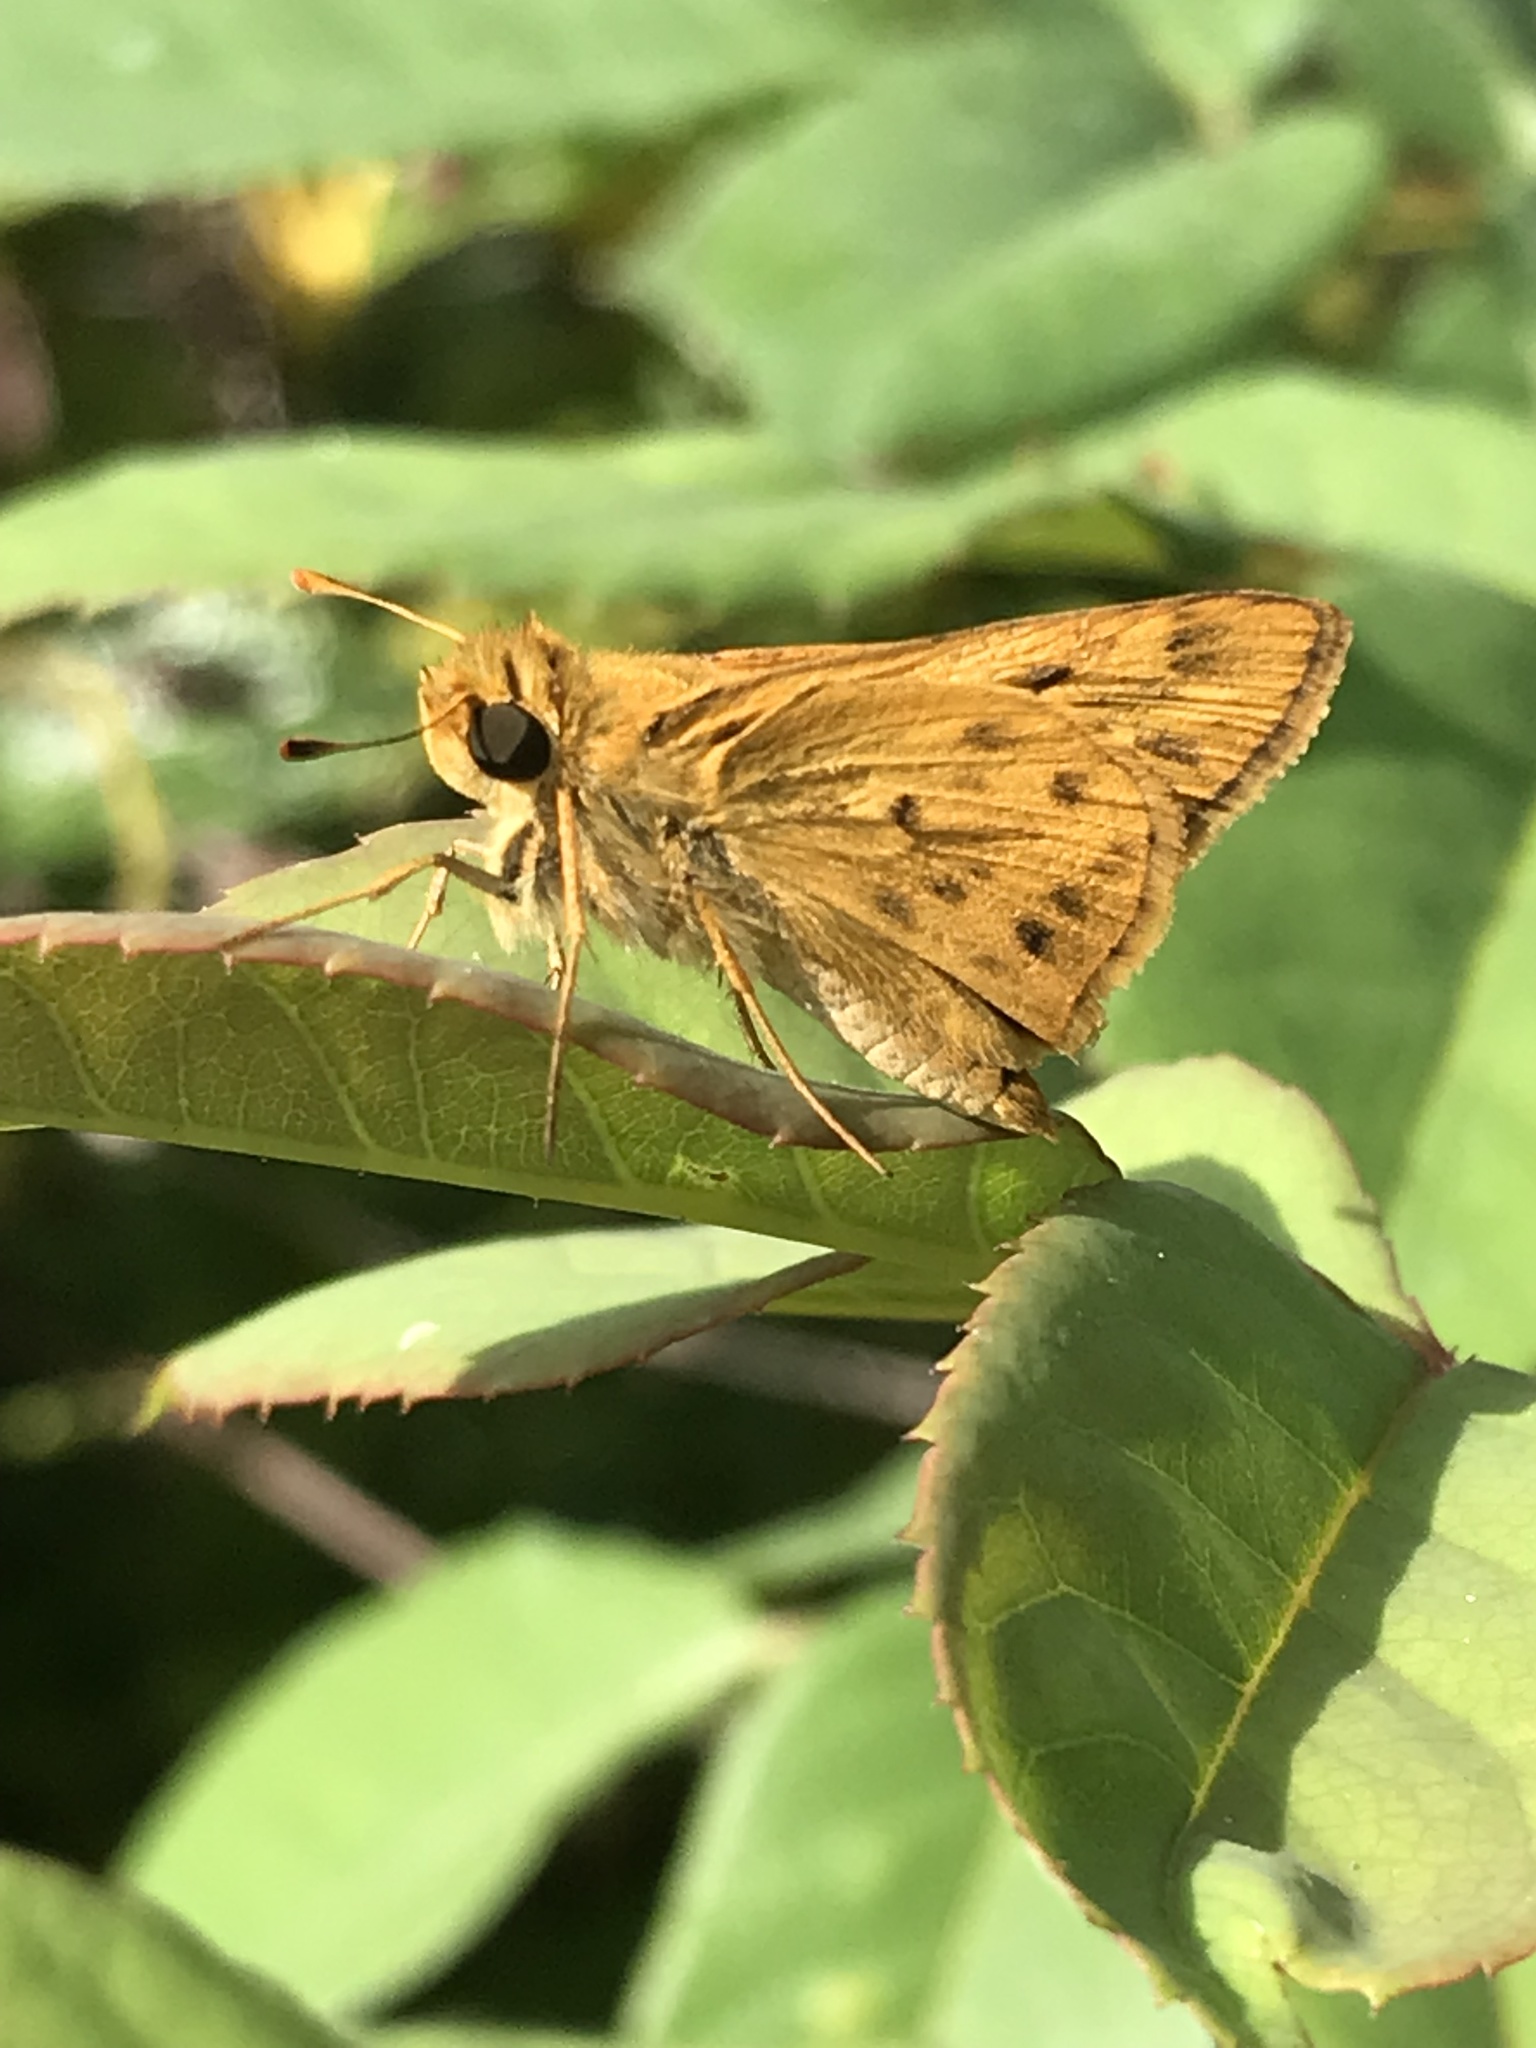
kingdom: Animalia
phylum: Arthropoda
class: Insecta
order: Lepidoptera
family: Hesperiidae
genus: Hylephila
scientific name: Hylephila phyleus
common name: Fiery skipper
